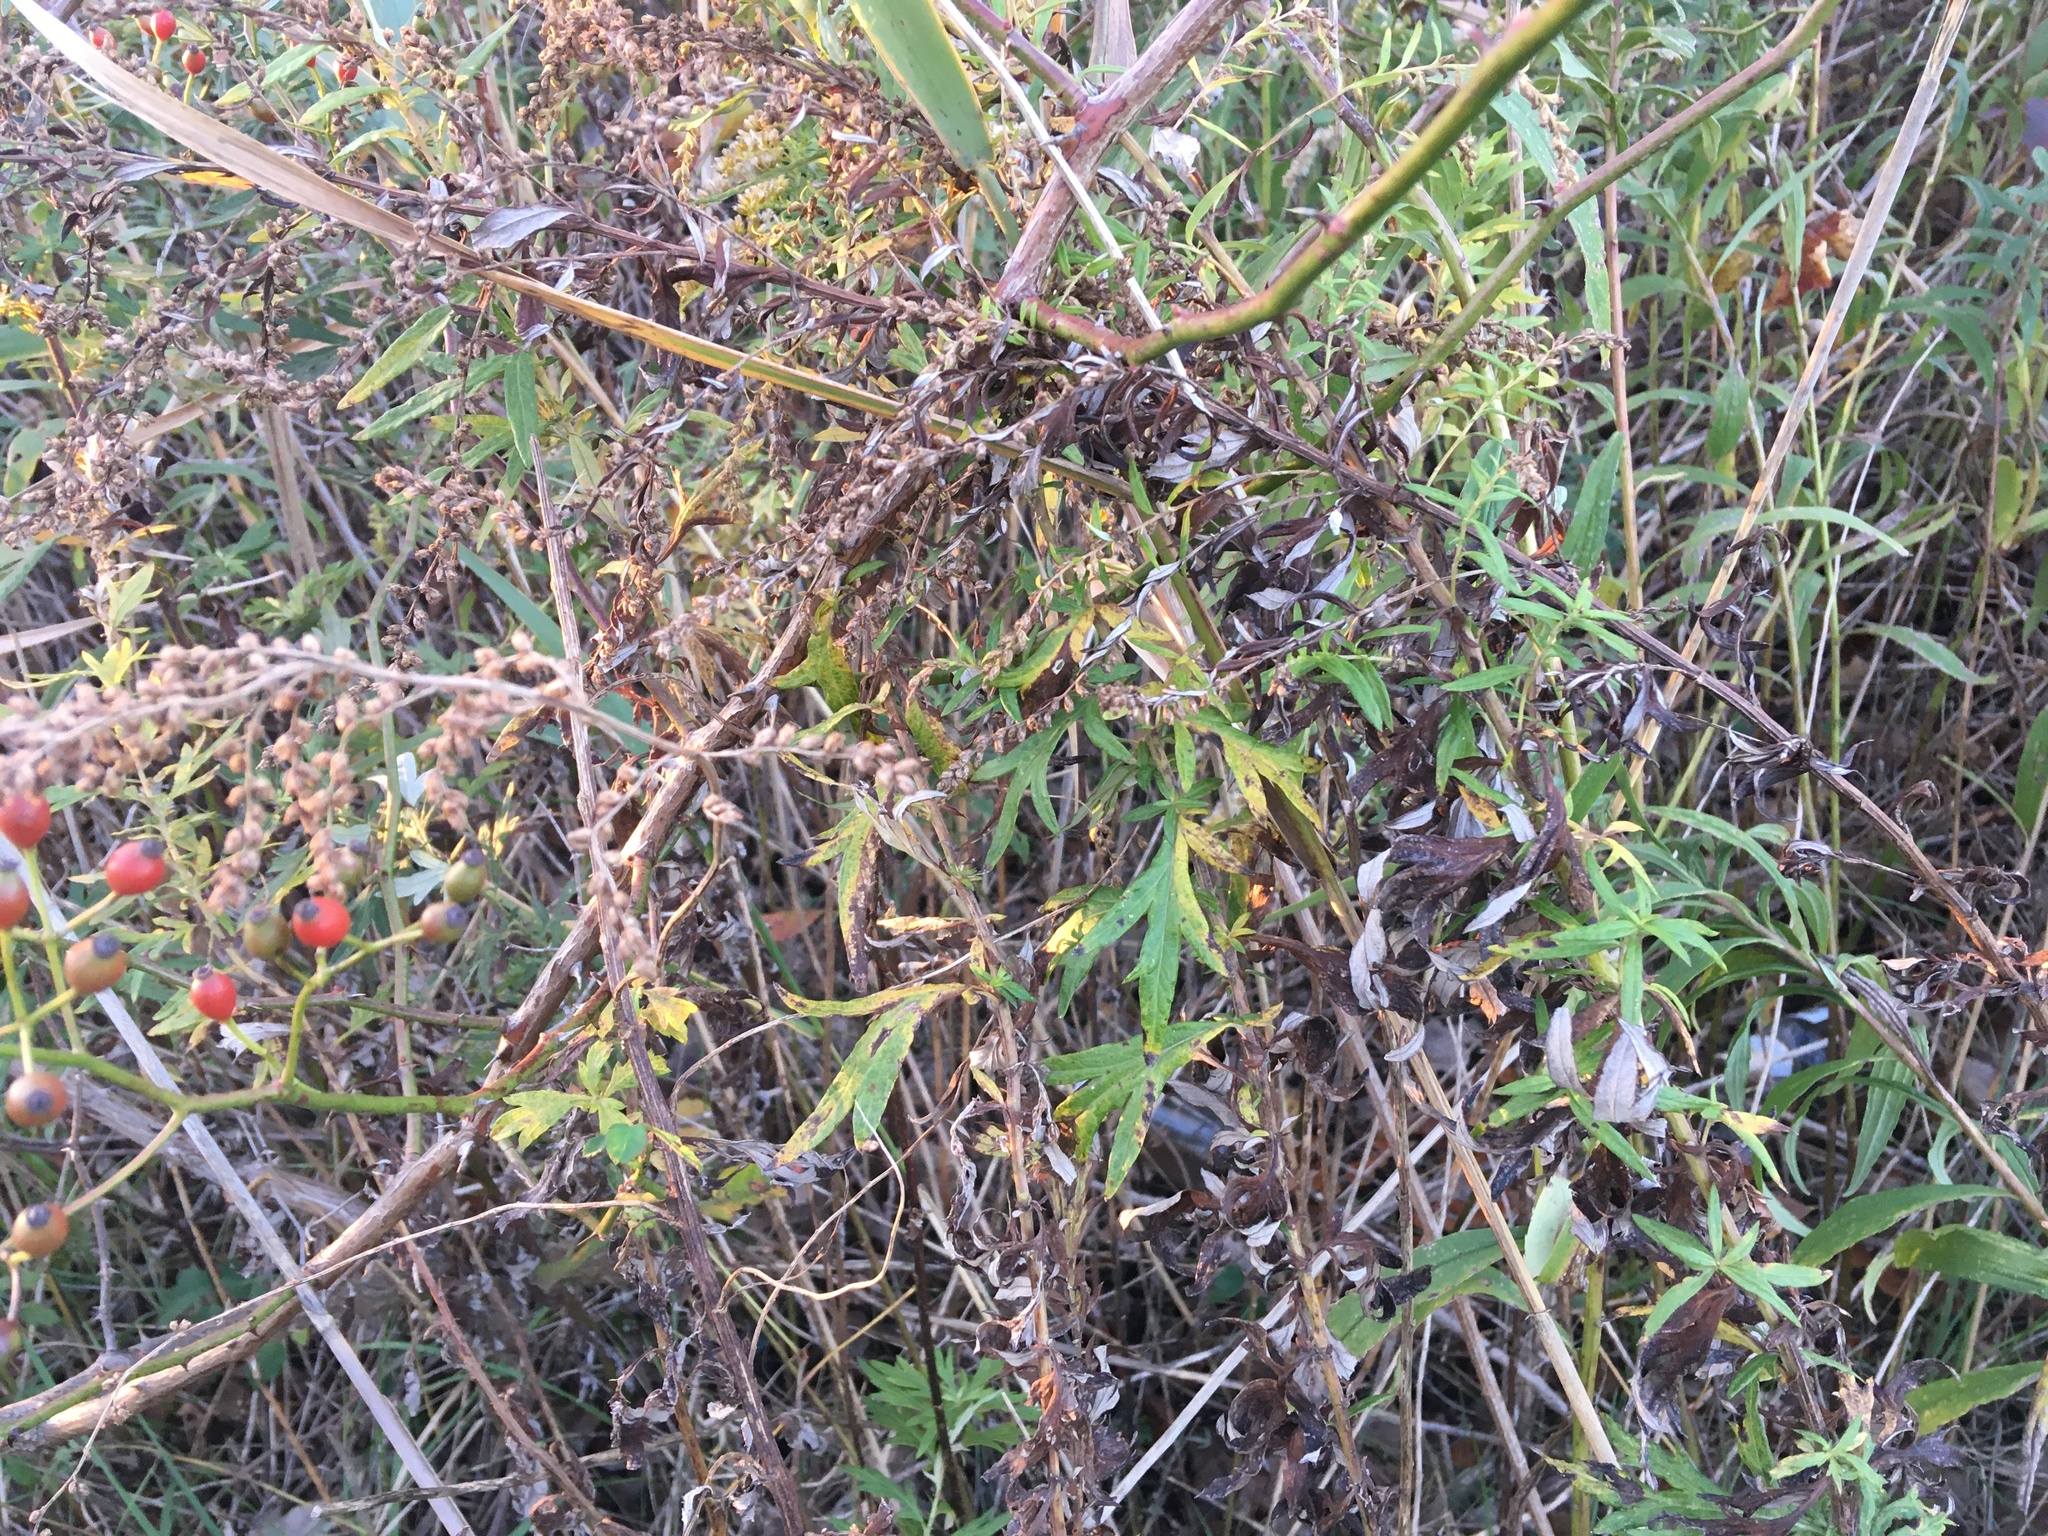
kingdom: Plantae
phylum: Tracheophyta
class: Magnoliopsida
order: Asterales
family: Asteraceae
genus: Artemisia
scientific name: Artemisia vulgaris
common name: Mugwort
